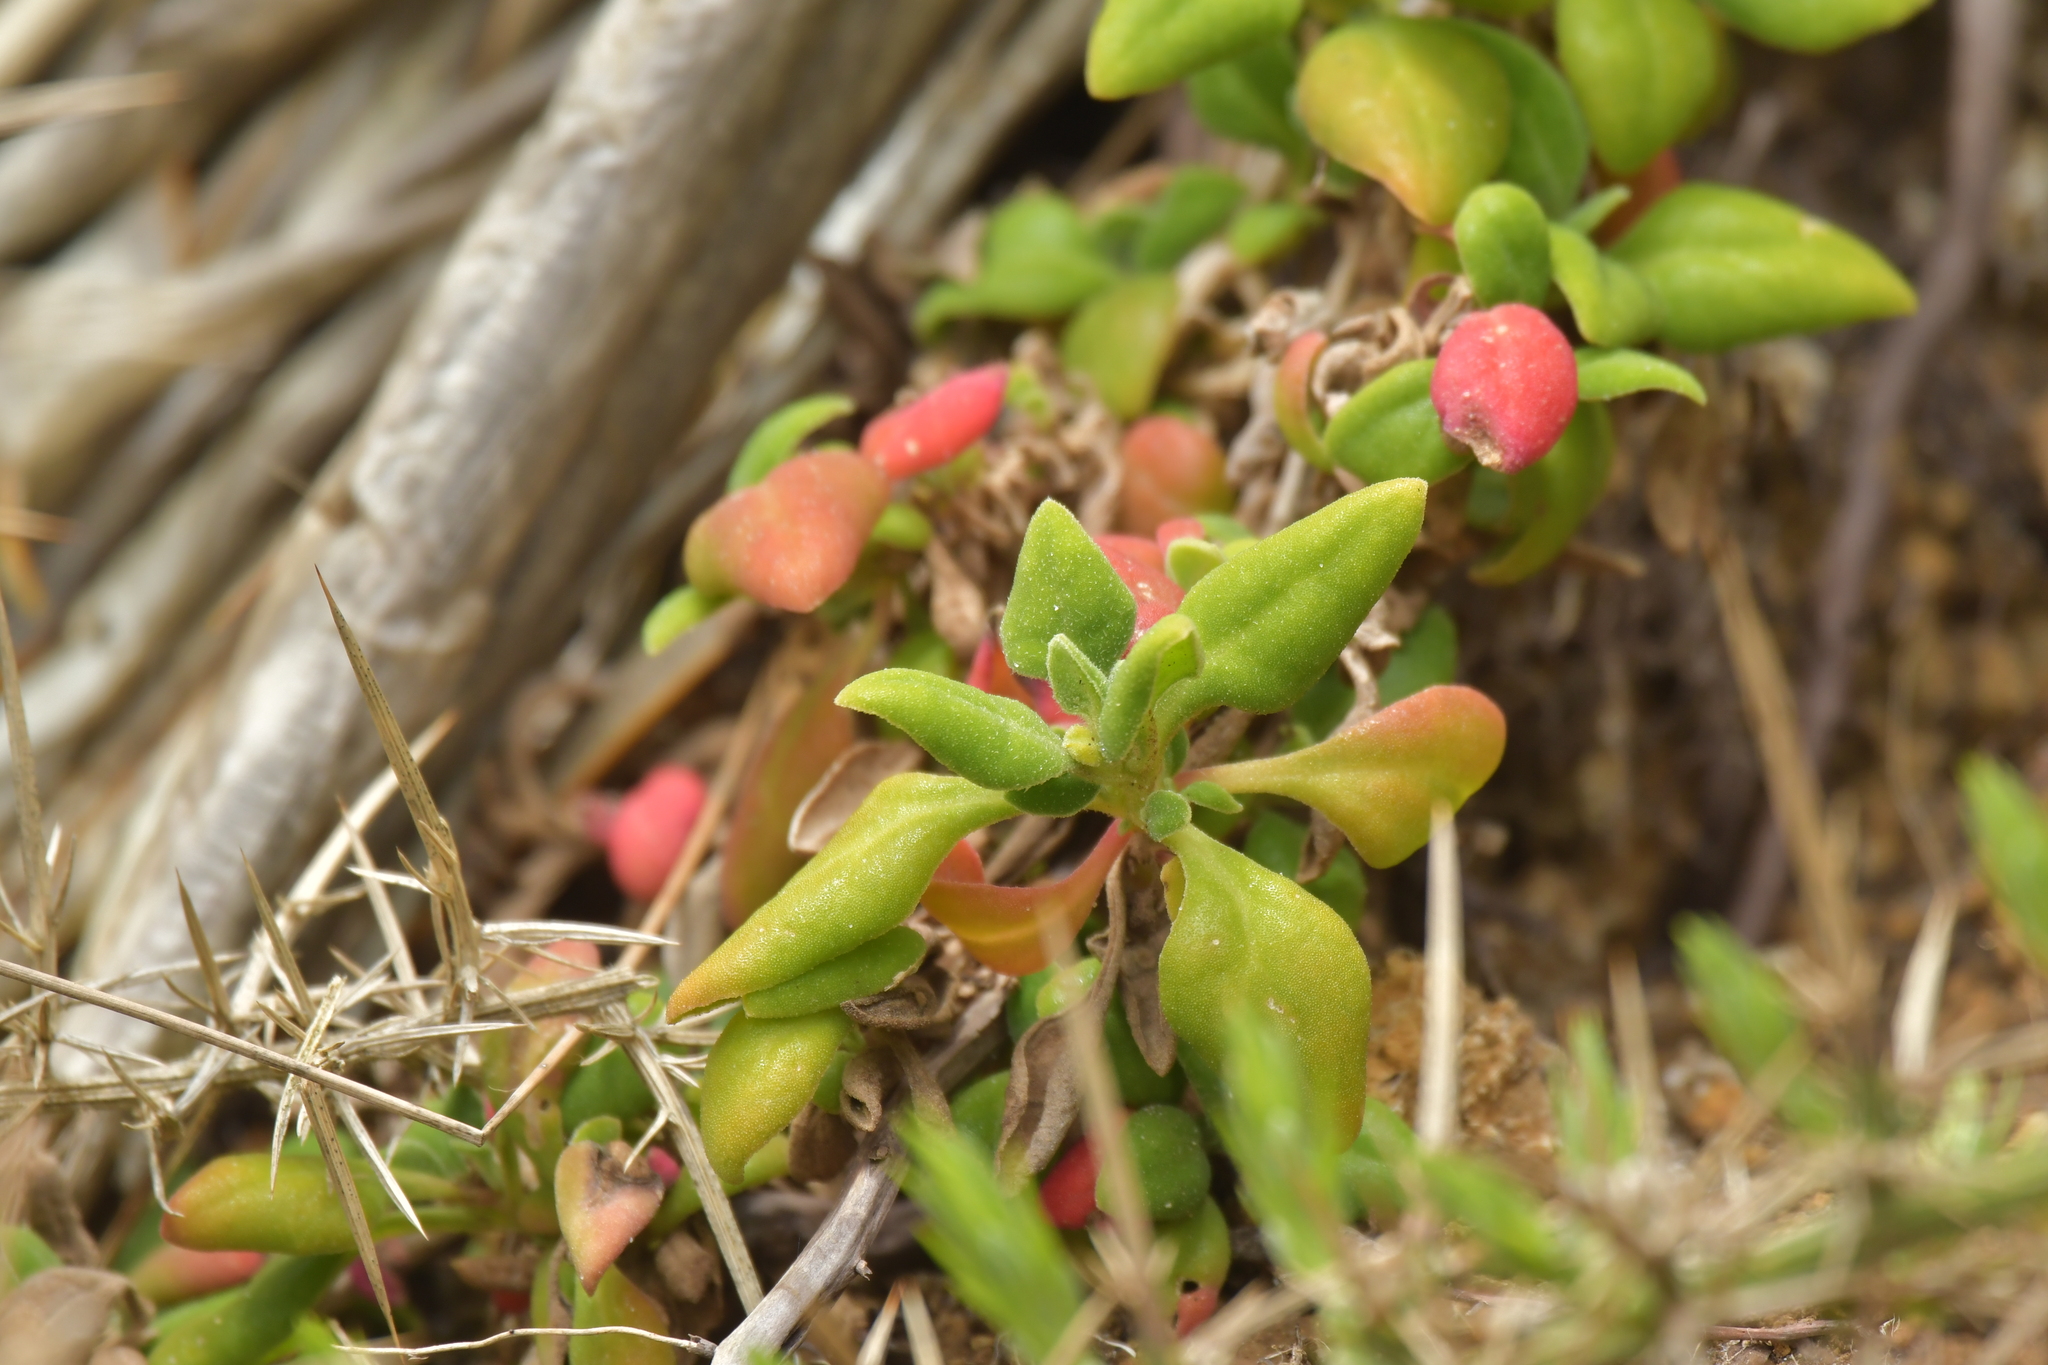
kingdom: Plantae
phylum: Tracheophyta
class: Magnoliopsida
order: Caryophyllales
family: Aizoaceae
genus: Tetragonia
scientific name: Tetragonia implexicoma
